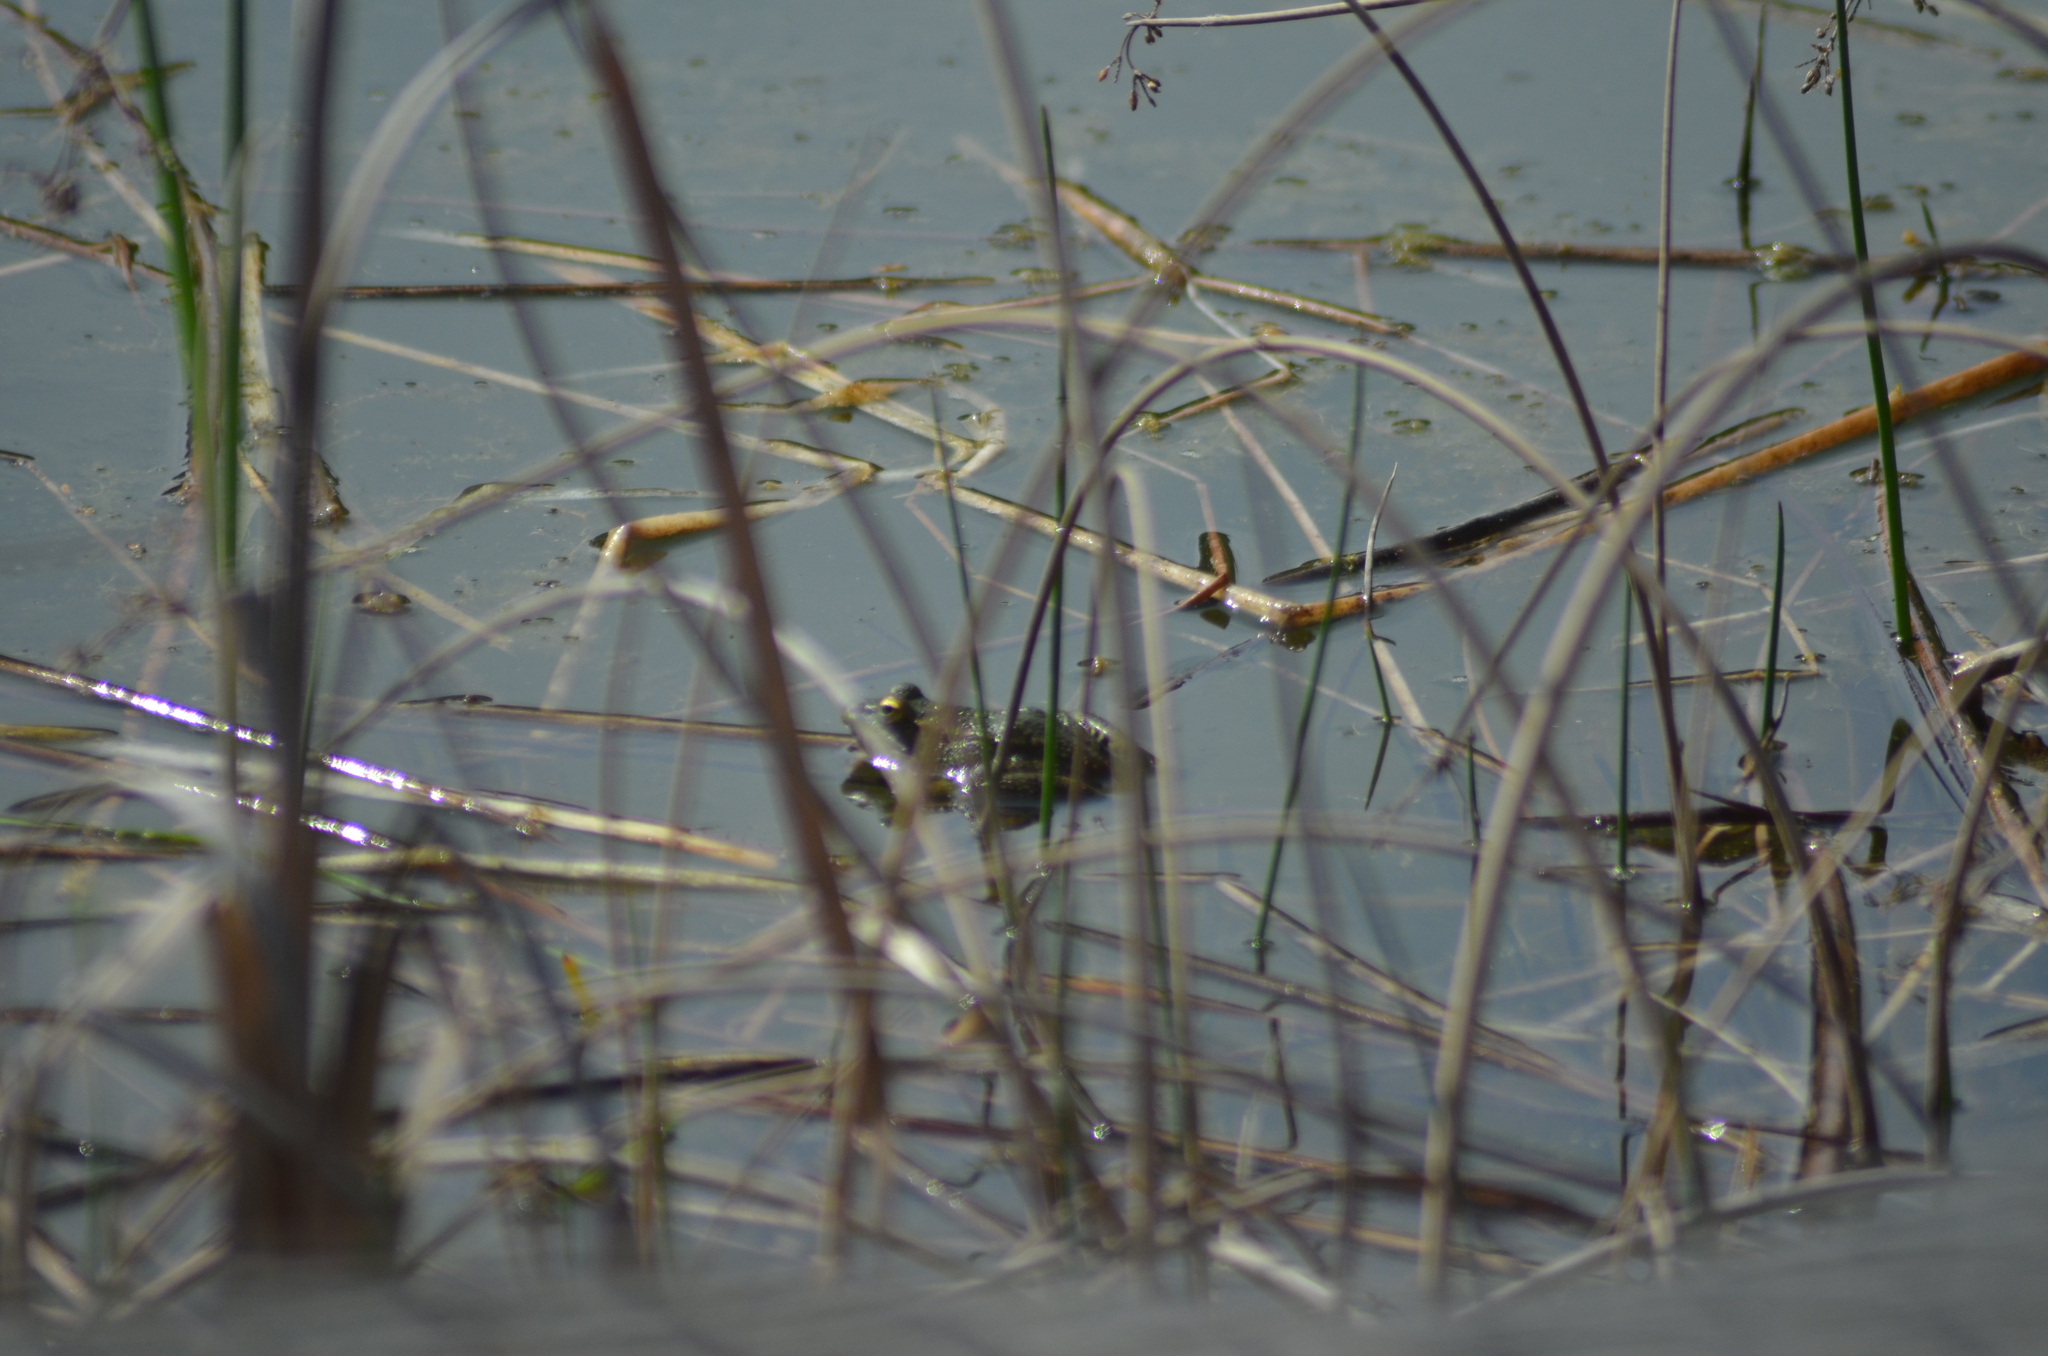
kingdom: Animalia
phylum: Chordata
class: Amphibia
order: Anura
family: Ranidae
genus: Pelophylax
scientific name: Pelophylax
